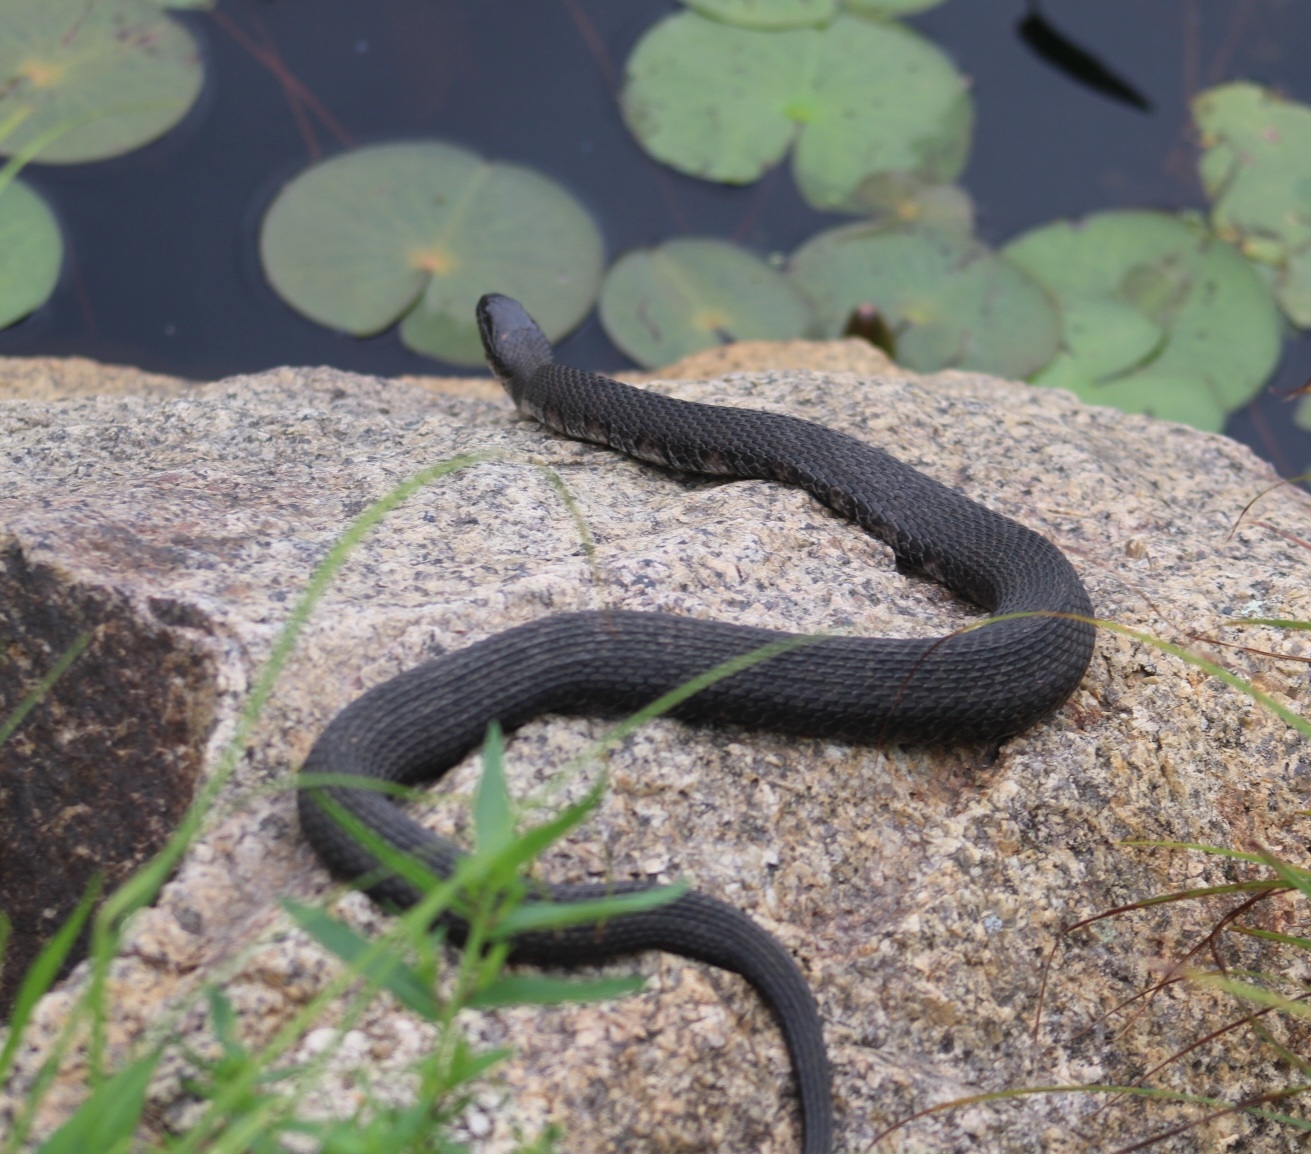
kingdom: Animalia
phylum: Chordata
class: Squamata
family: Colubridae
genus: Nerodia
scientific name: Nerodia sipedon
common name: Northern water snake
